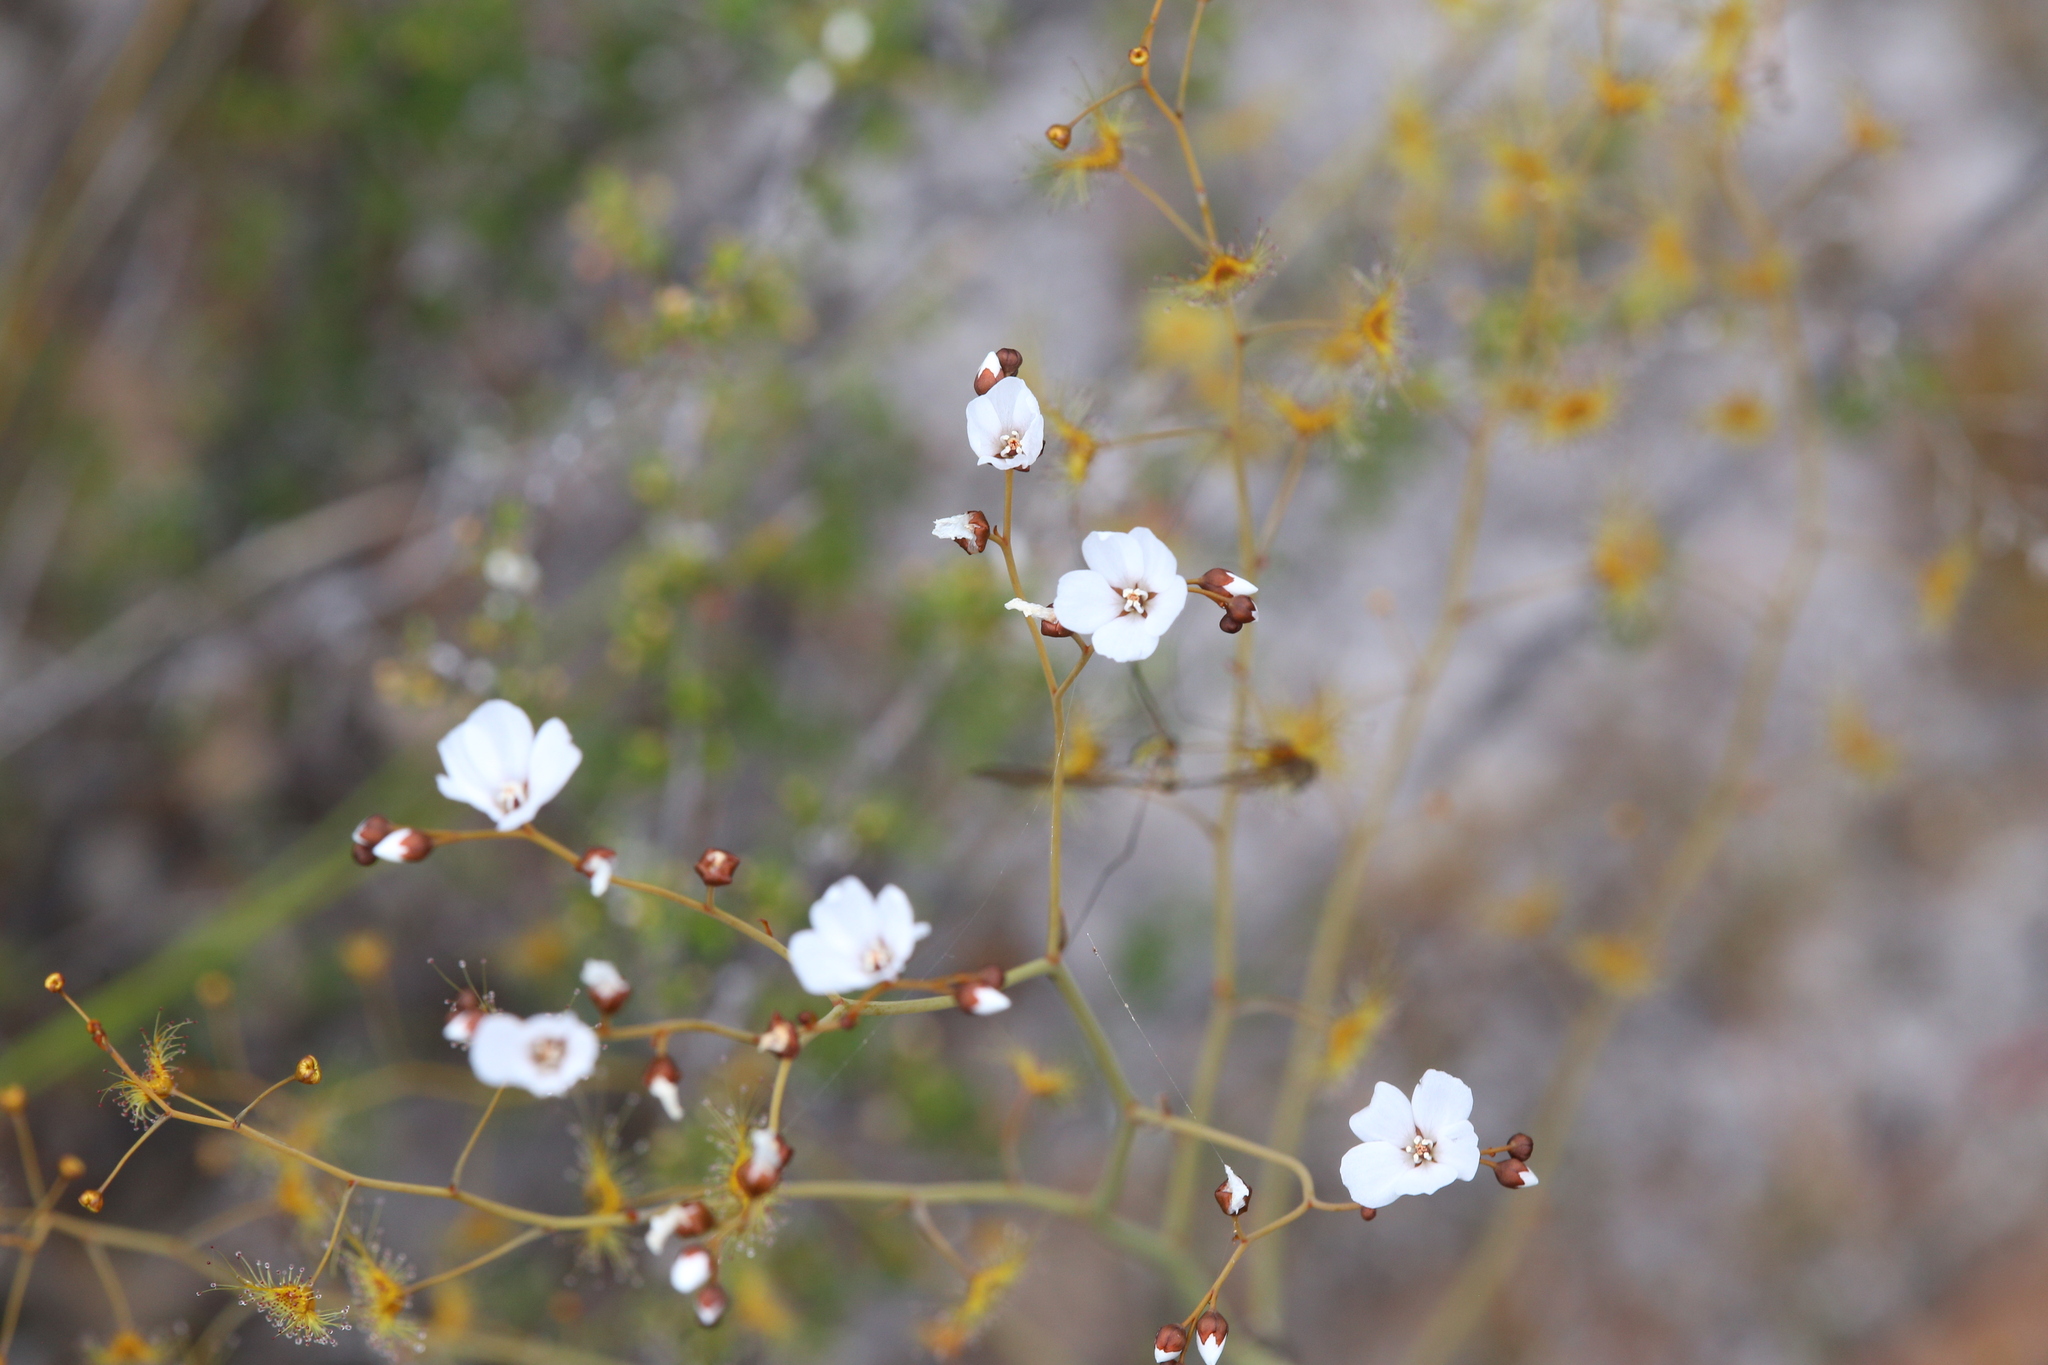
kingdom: Plantae
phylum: Tracheophyta
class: Magnoliopsida
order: Caryophyllales
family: Droseraceae
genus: Drosera
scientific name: Drosera gigantea
